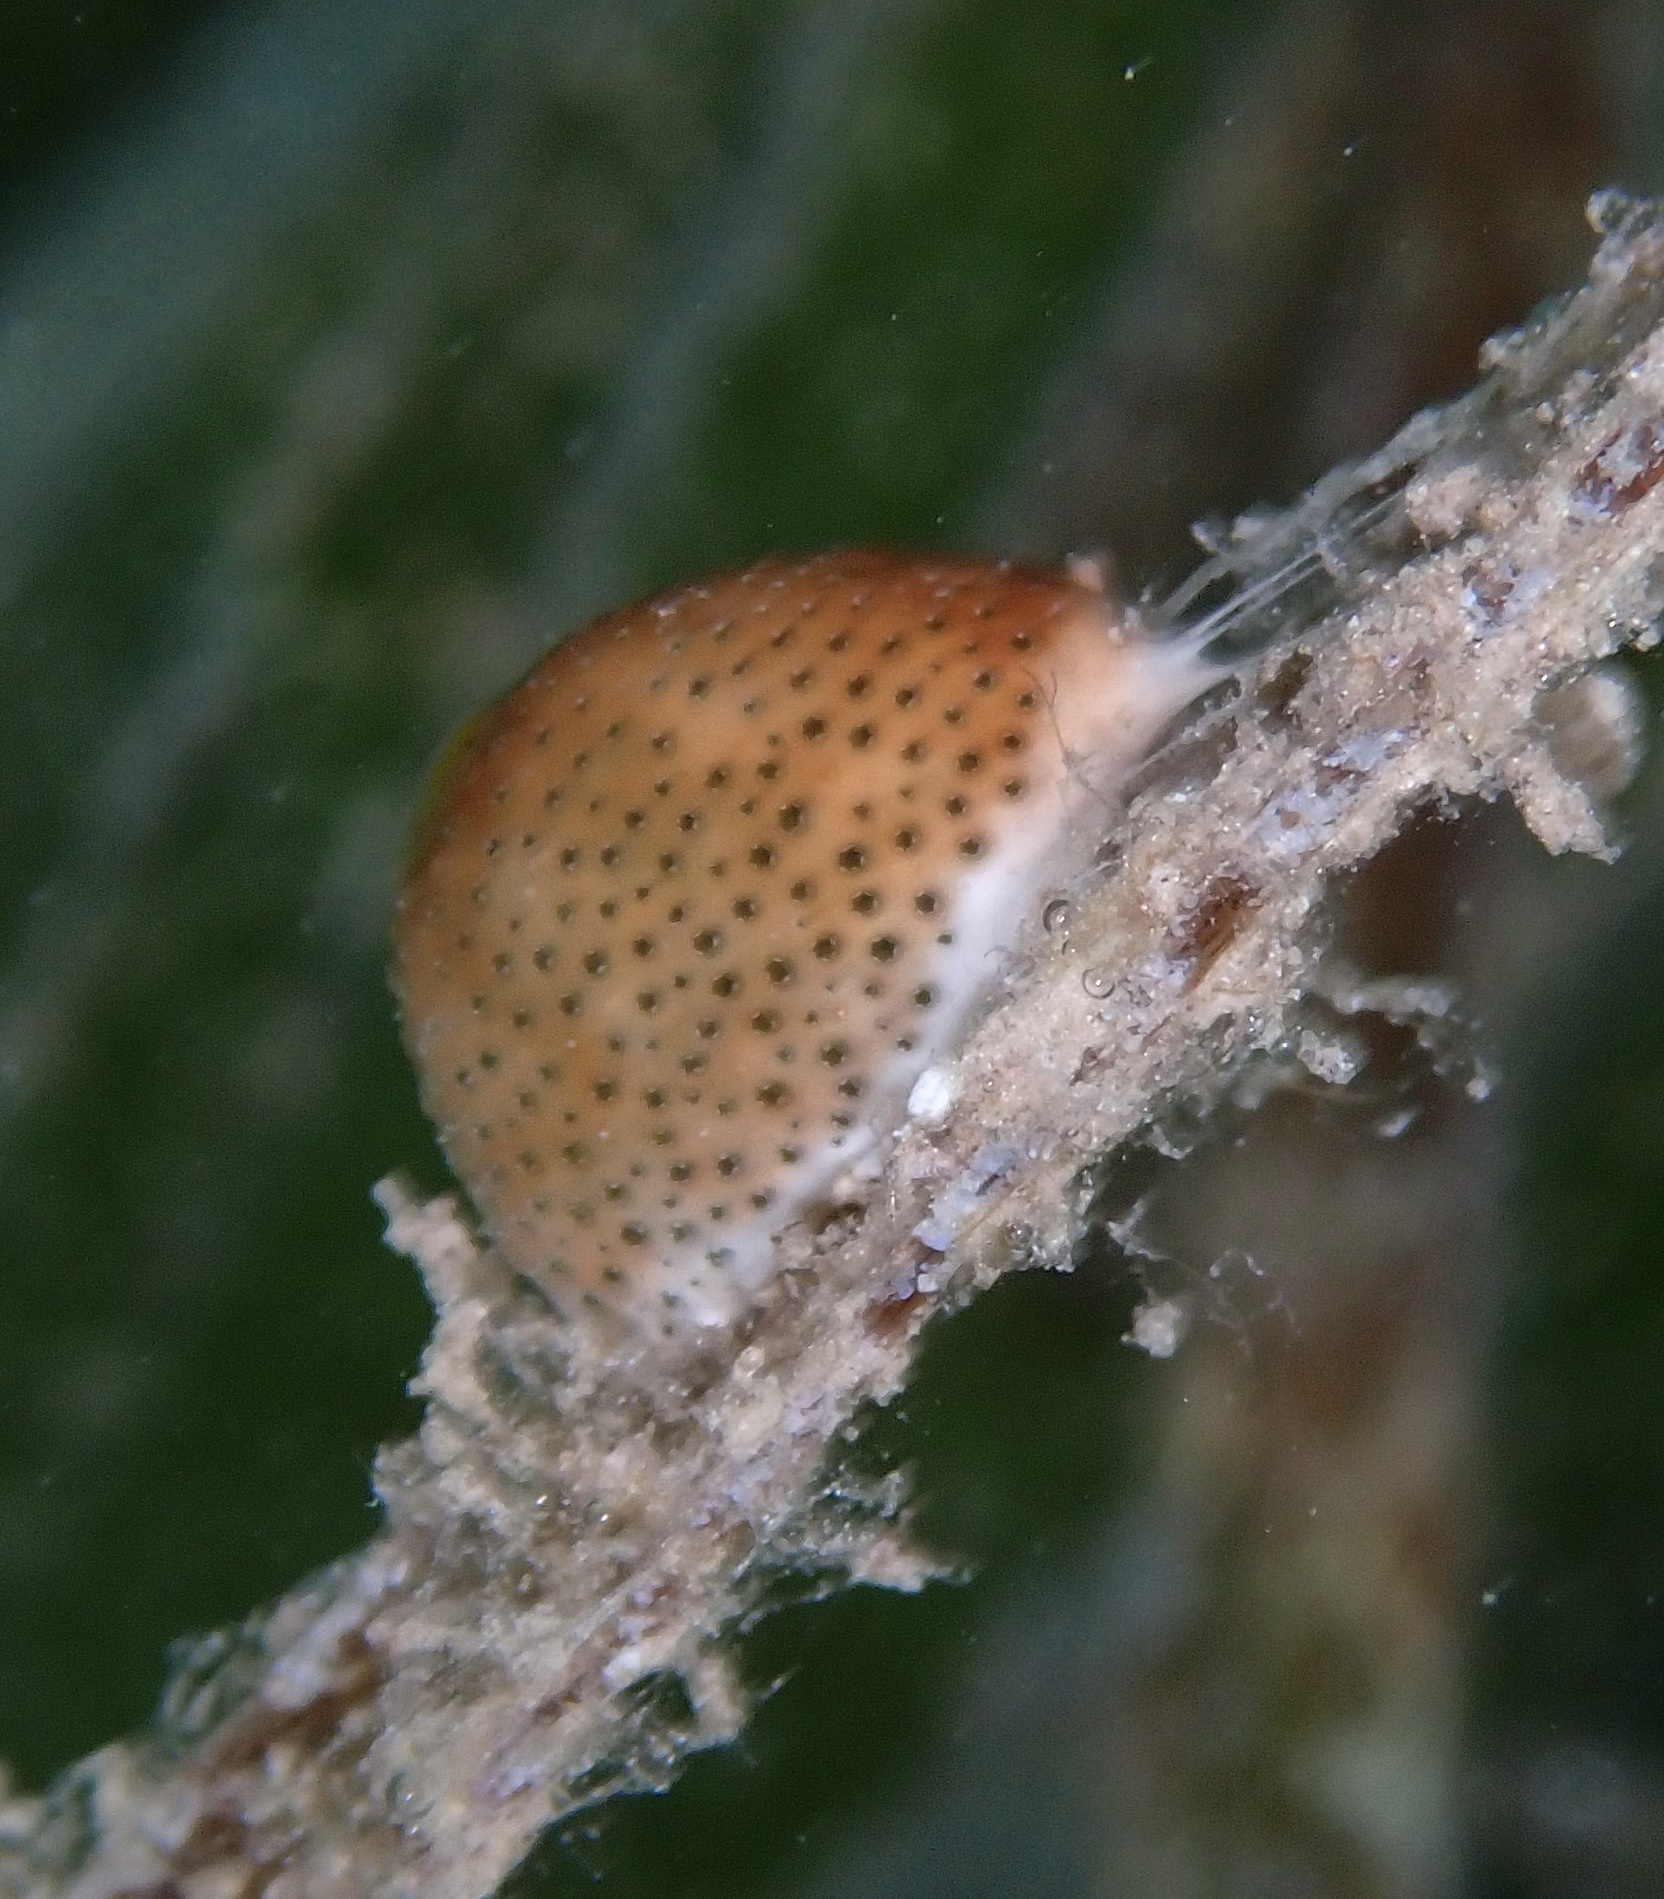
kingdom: Animalia
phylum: Chordata
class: Ascidiacea
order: Aplousobranchia
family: Didemnidae
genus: Didemnum
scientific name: Didemnum molle
